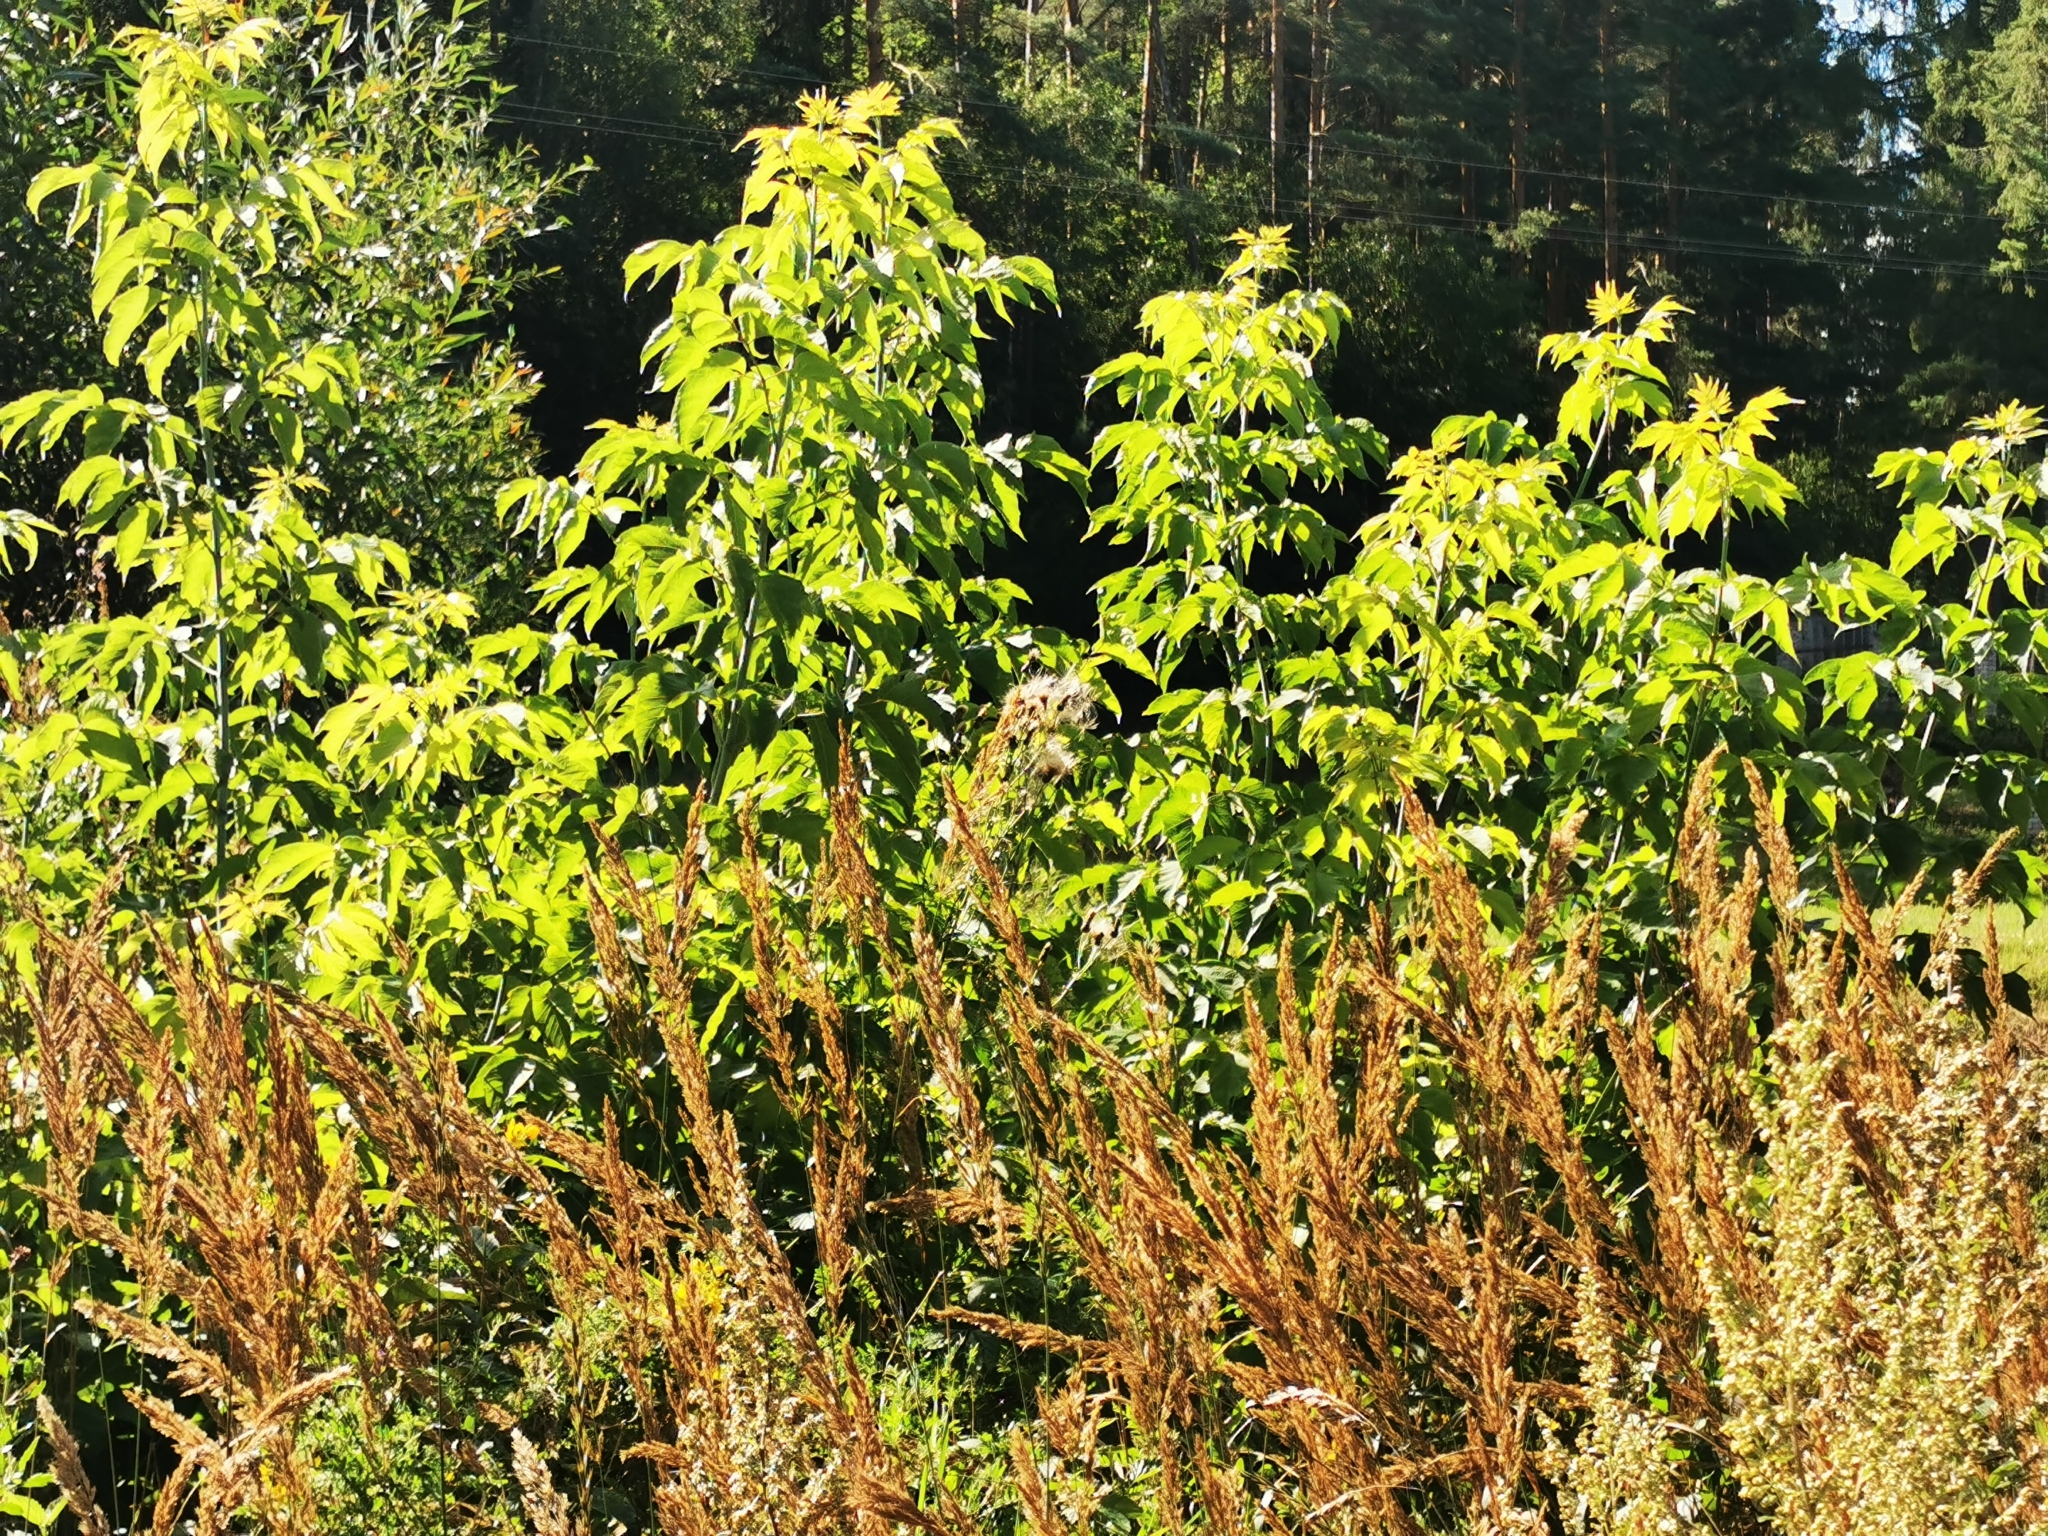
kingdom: Plantae
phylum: Tracheophyta
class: Magnoliopsida
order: Sapindales
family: Sapindaceae
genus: Acer
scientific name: Acer negundo
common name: Ashleaf maple
